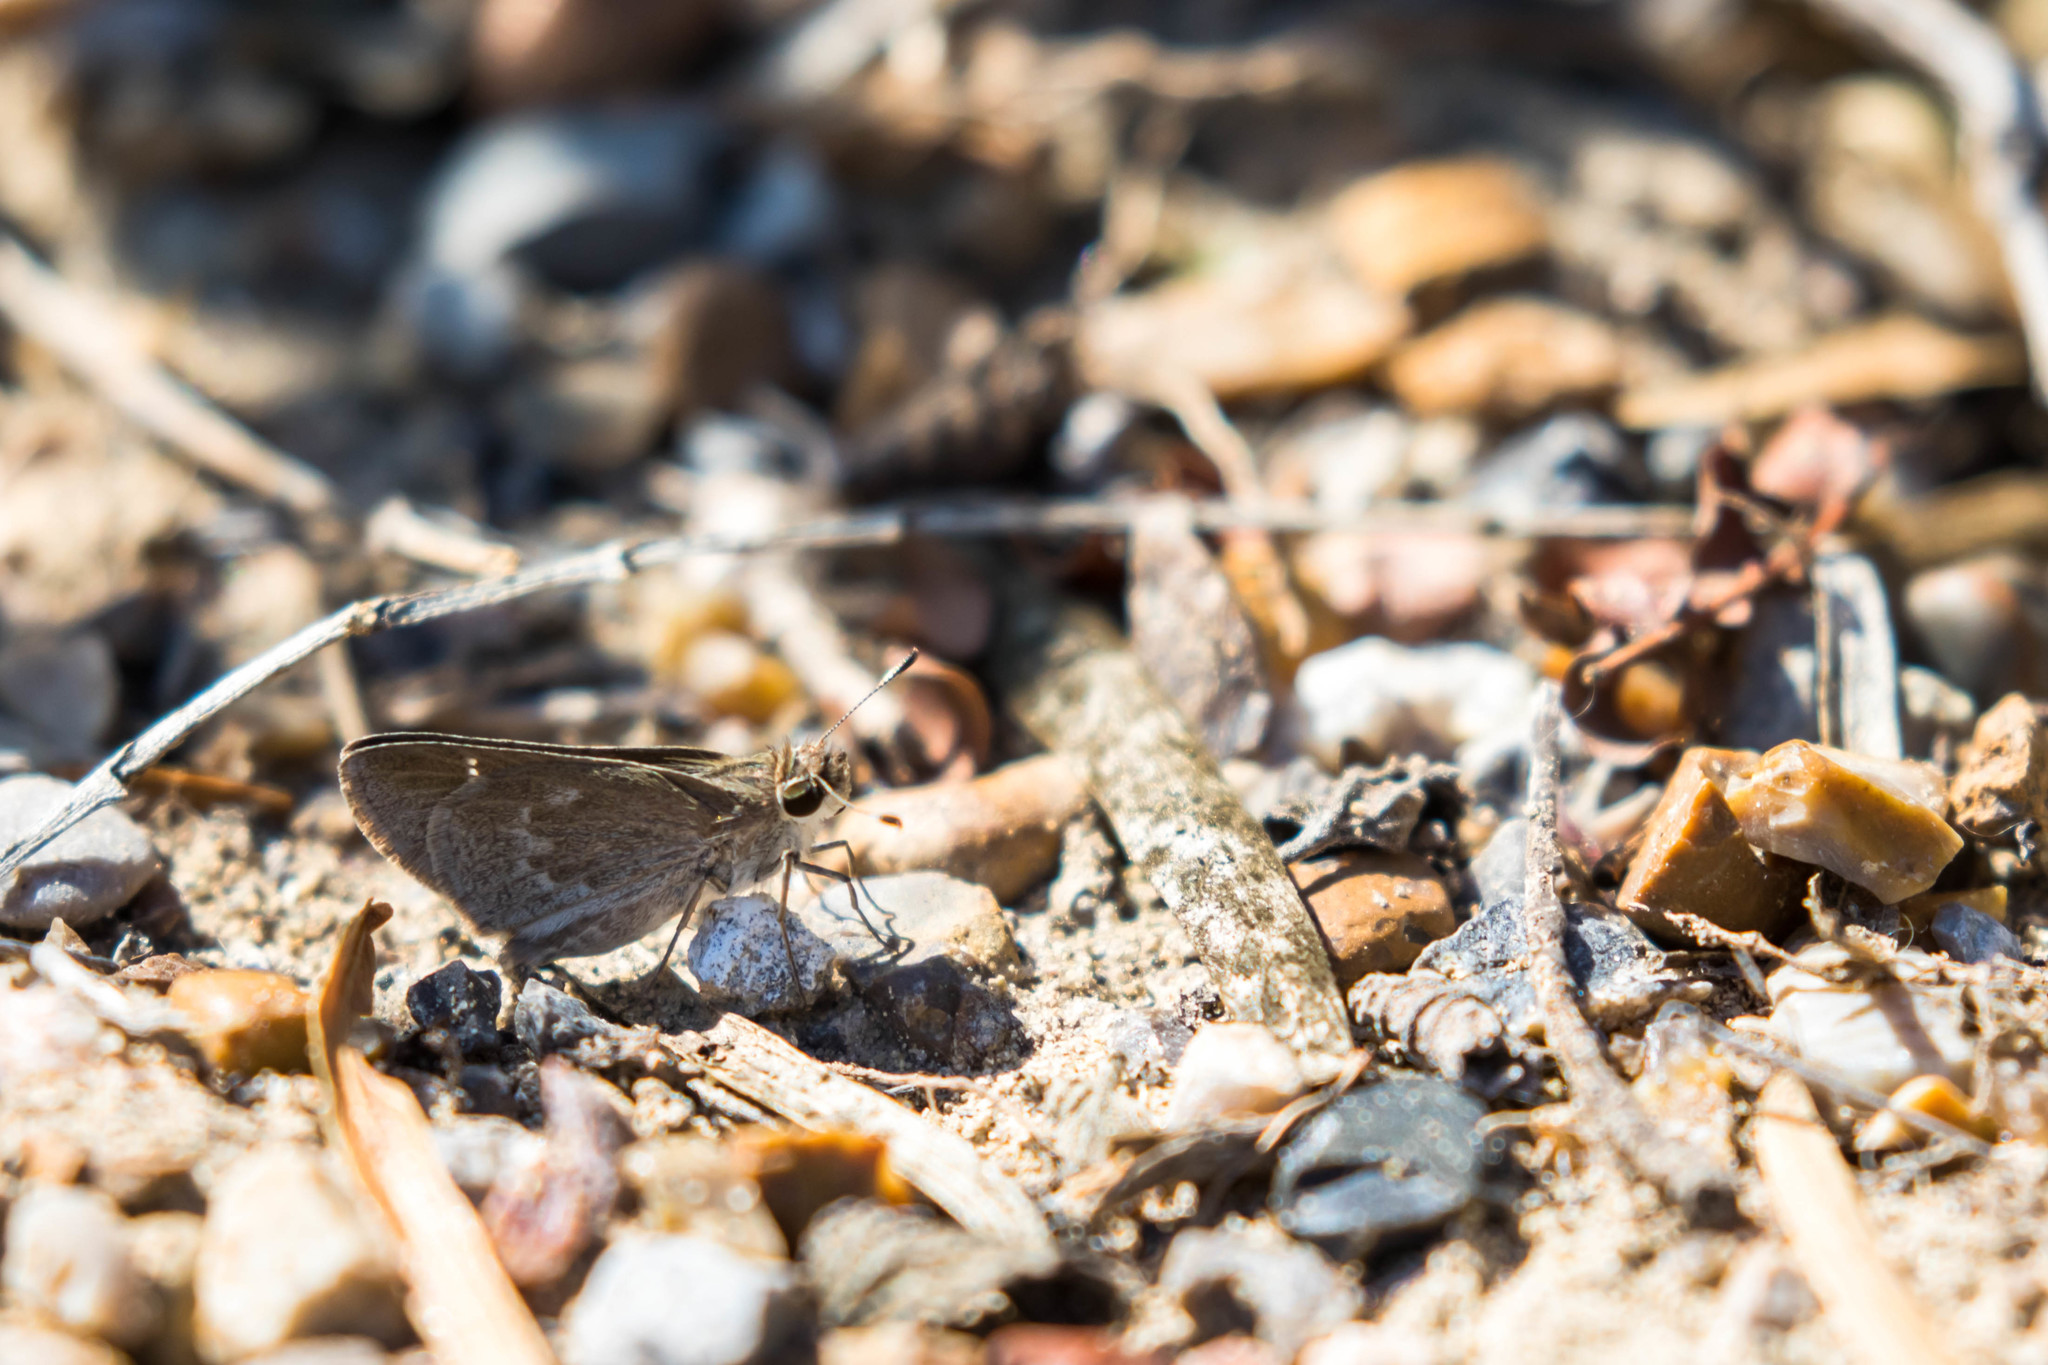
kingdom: Animalia
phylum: Arthropoda
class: Insecta
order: Lepidoptera
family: Hesperiidae
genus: Lerodea
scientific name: Lerodea eufala
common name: Eufala skipper
